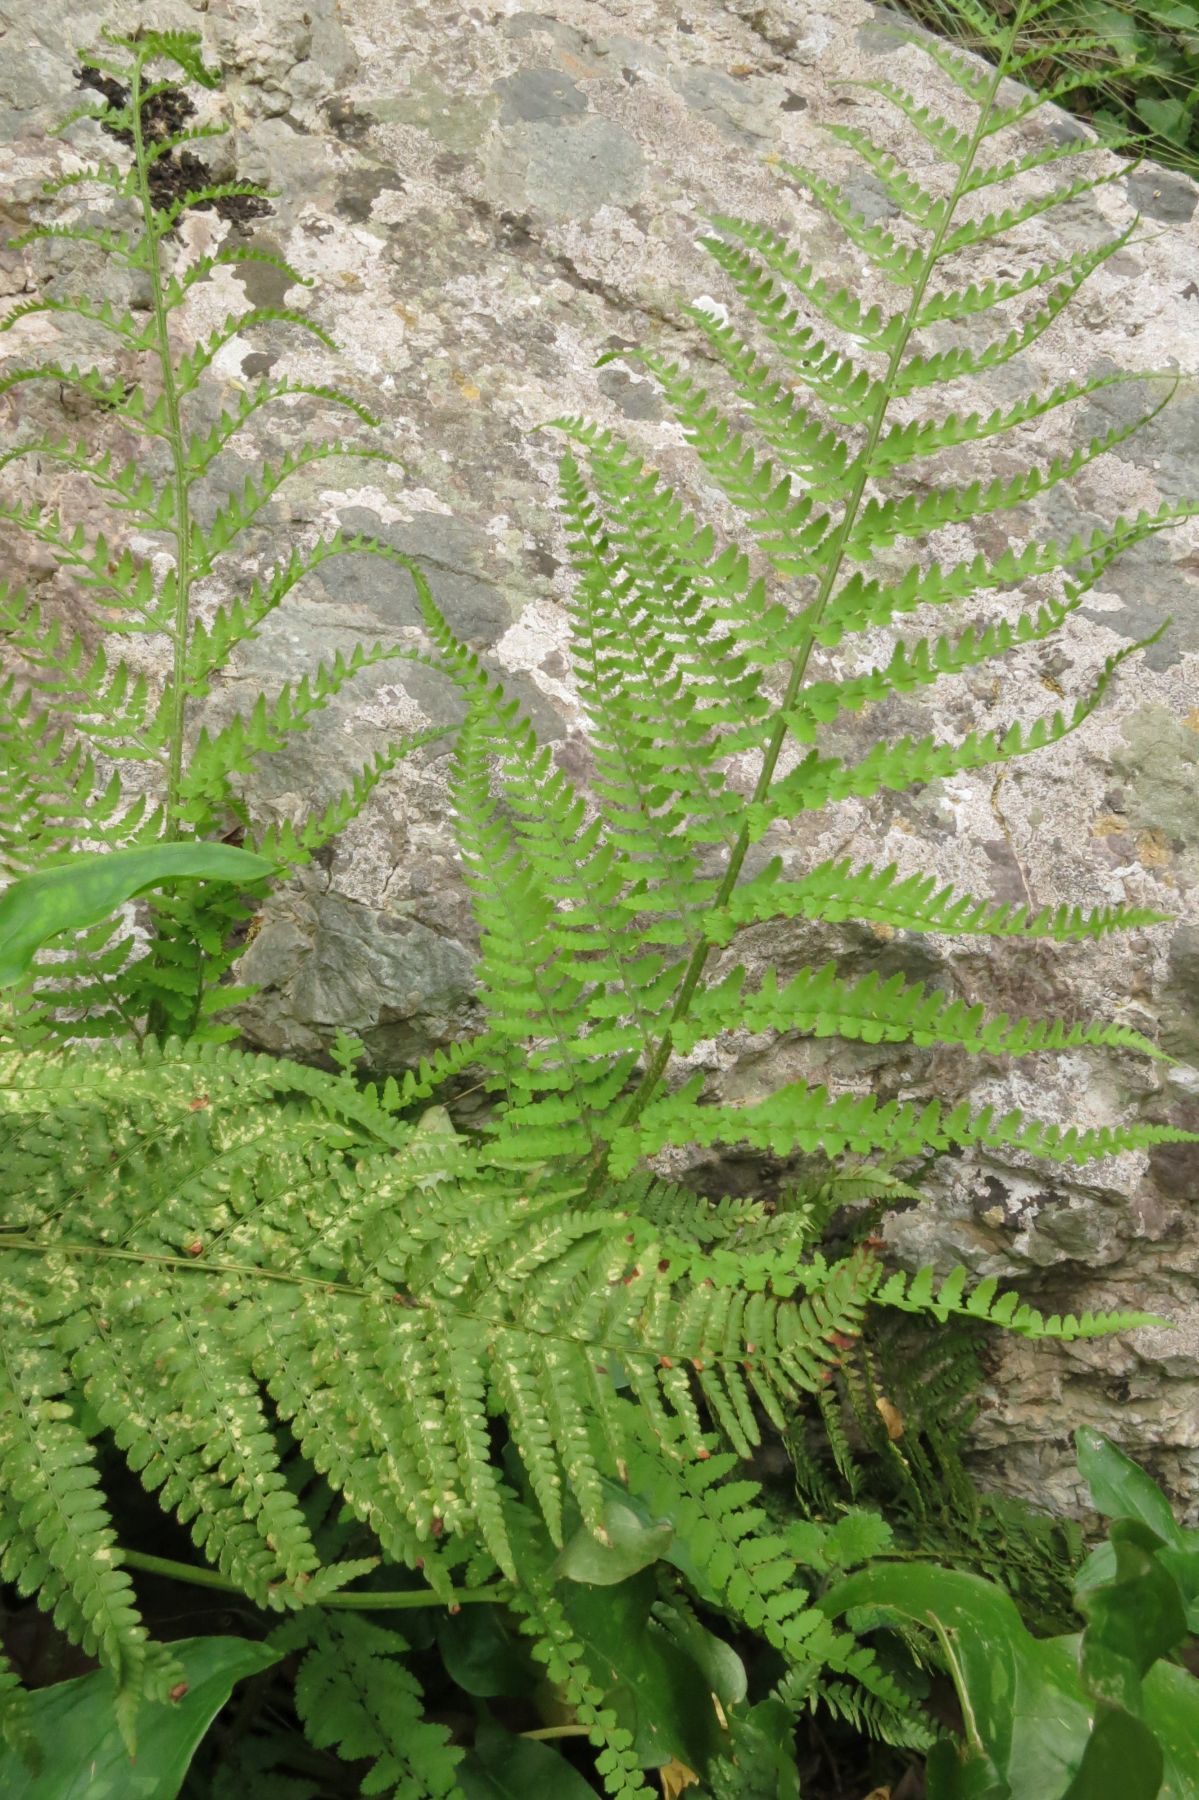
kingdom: Plantae
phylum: Tracheophyta
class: Polypodiopsida
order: Polypodiales
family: Dryopteridaceae
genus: Dryopteris
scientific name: Dryopteris pallida
